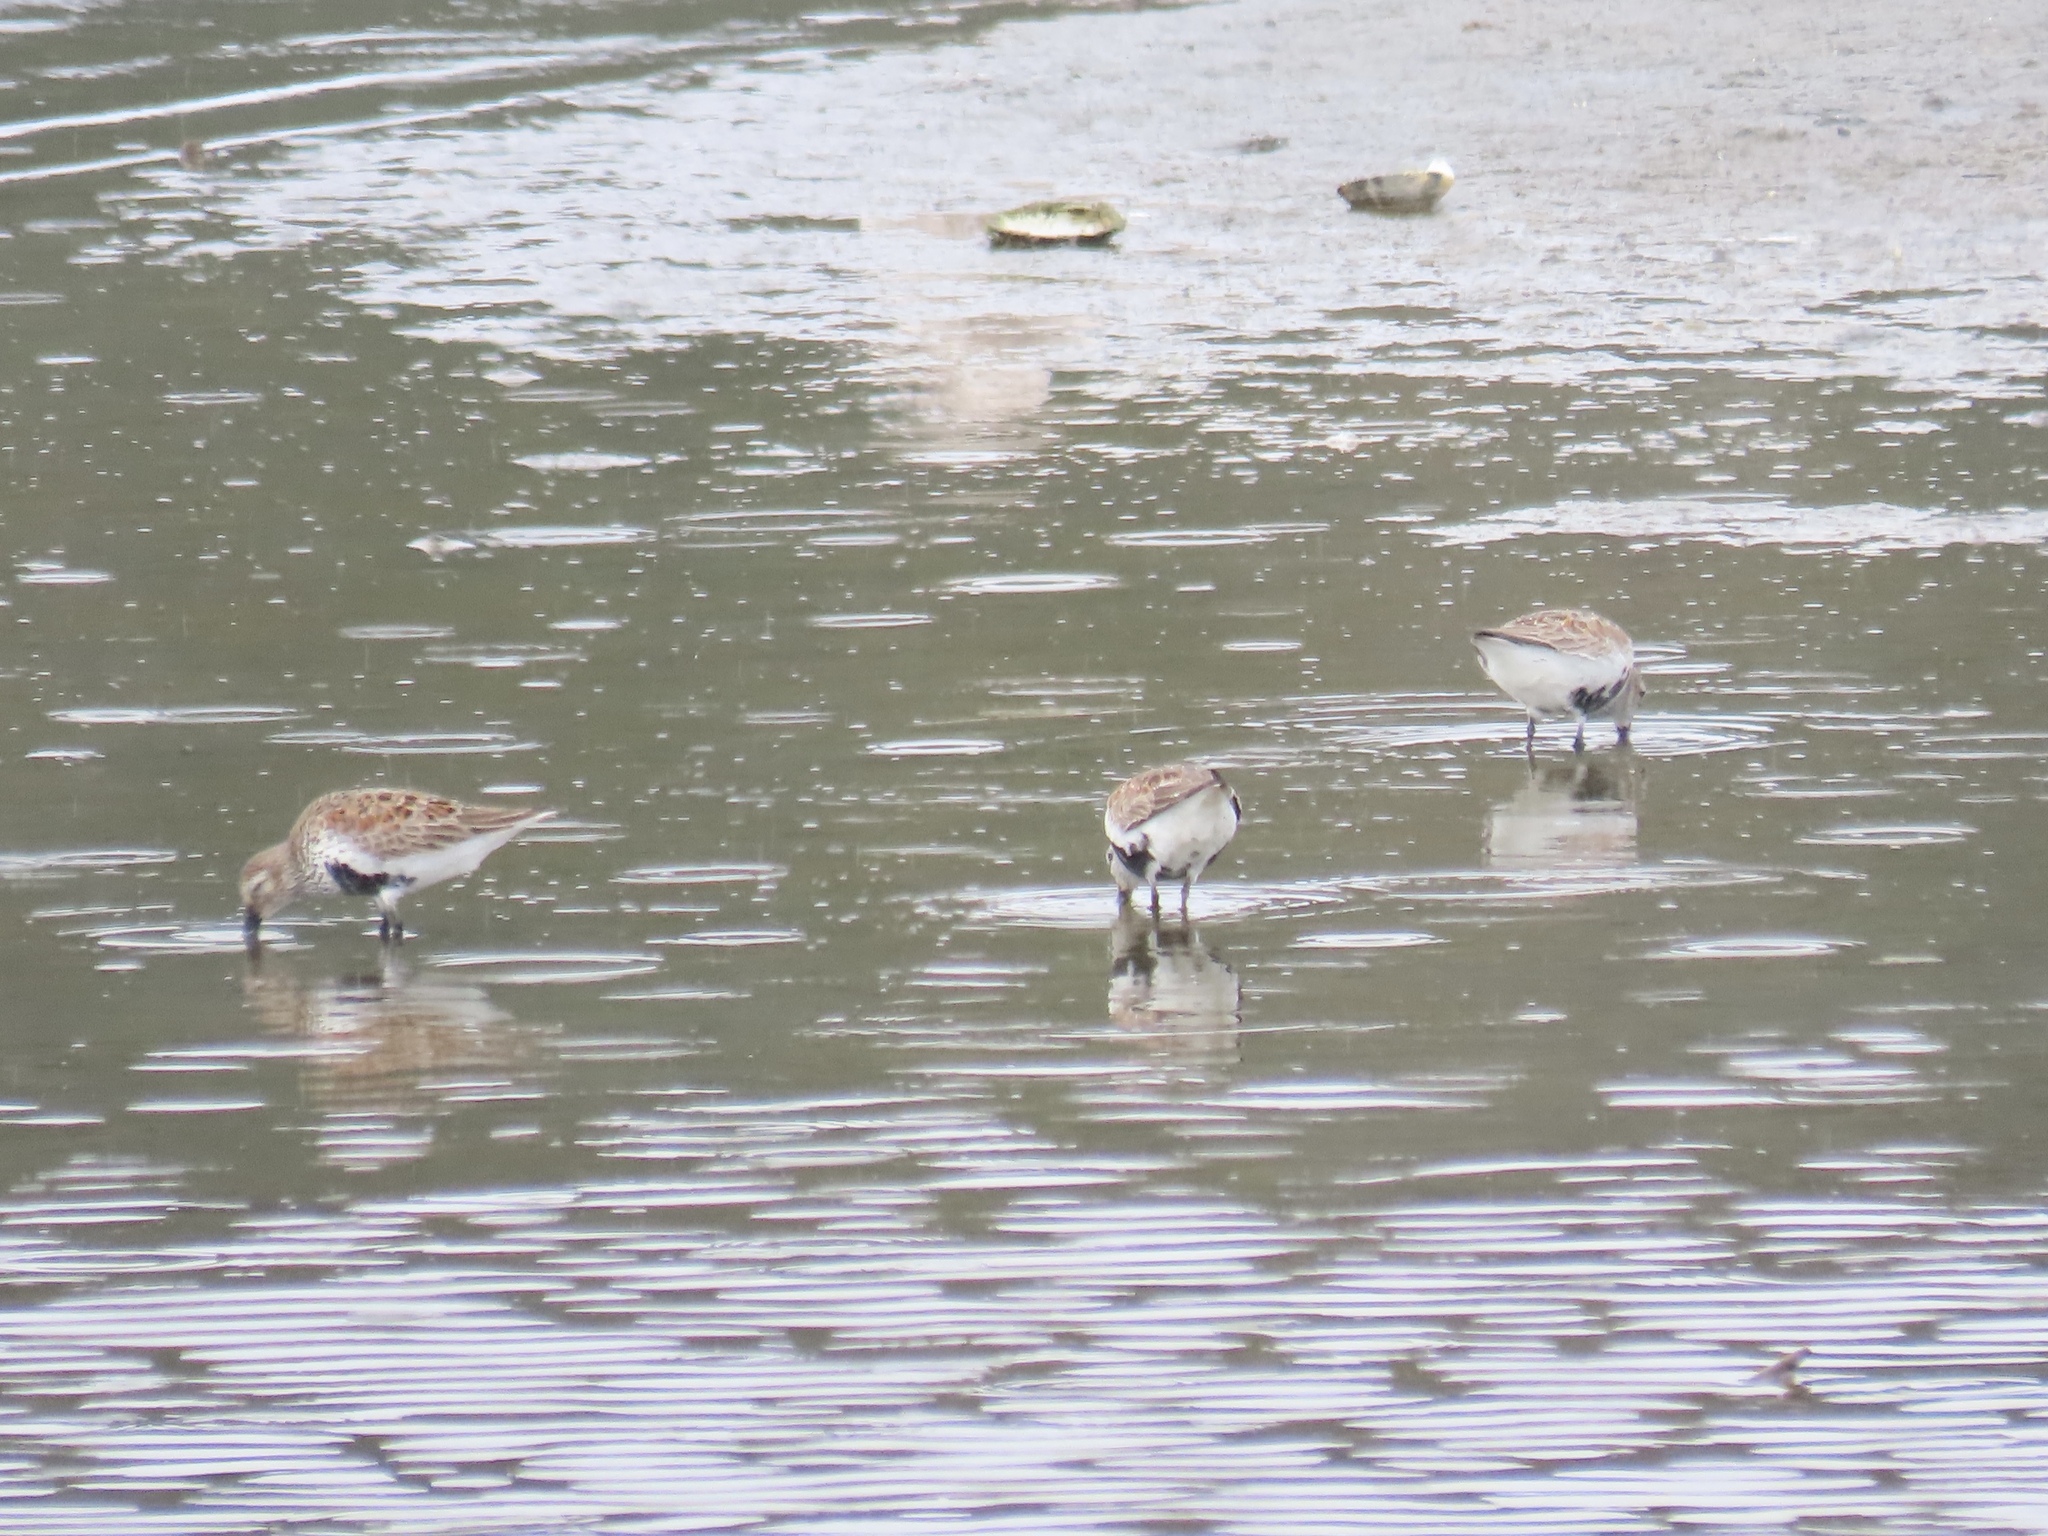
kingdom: Animalia
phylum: Chordata
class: Aves
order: Charadriiformes
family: Scolopacidae
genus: Calidris
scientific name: Calidris alpina
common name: Dunlin
